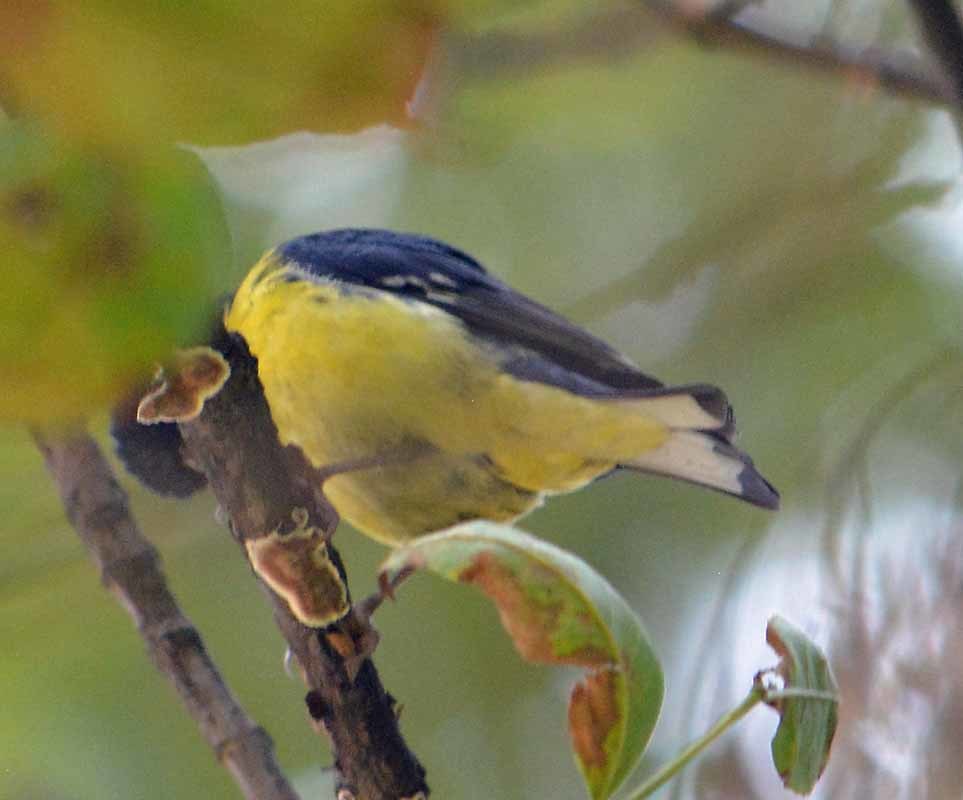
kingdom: Animalia
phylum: Chordata
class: Aves
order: Passeriformes
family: Fringillidae
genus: Spinus
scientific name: Spinus psaltria
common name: Lesser goldfinch
